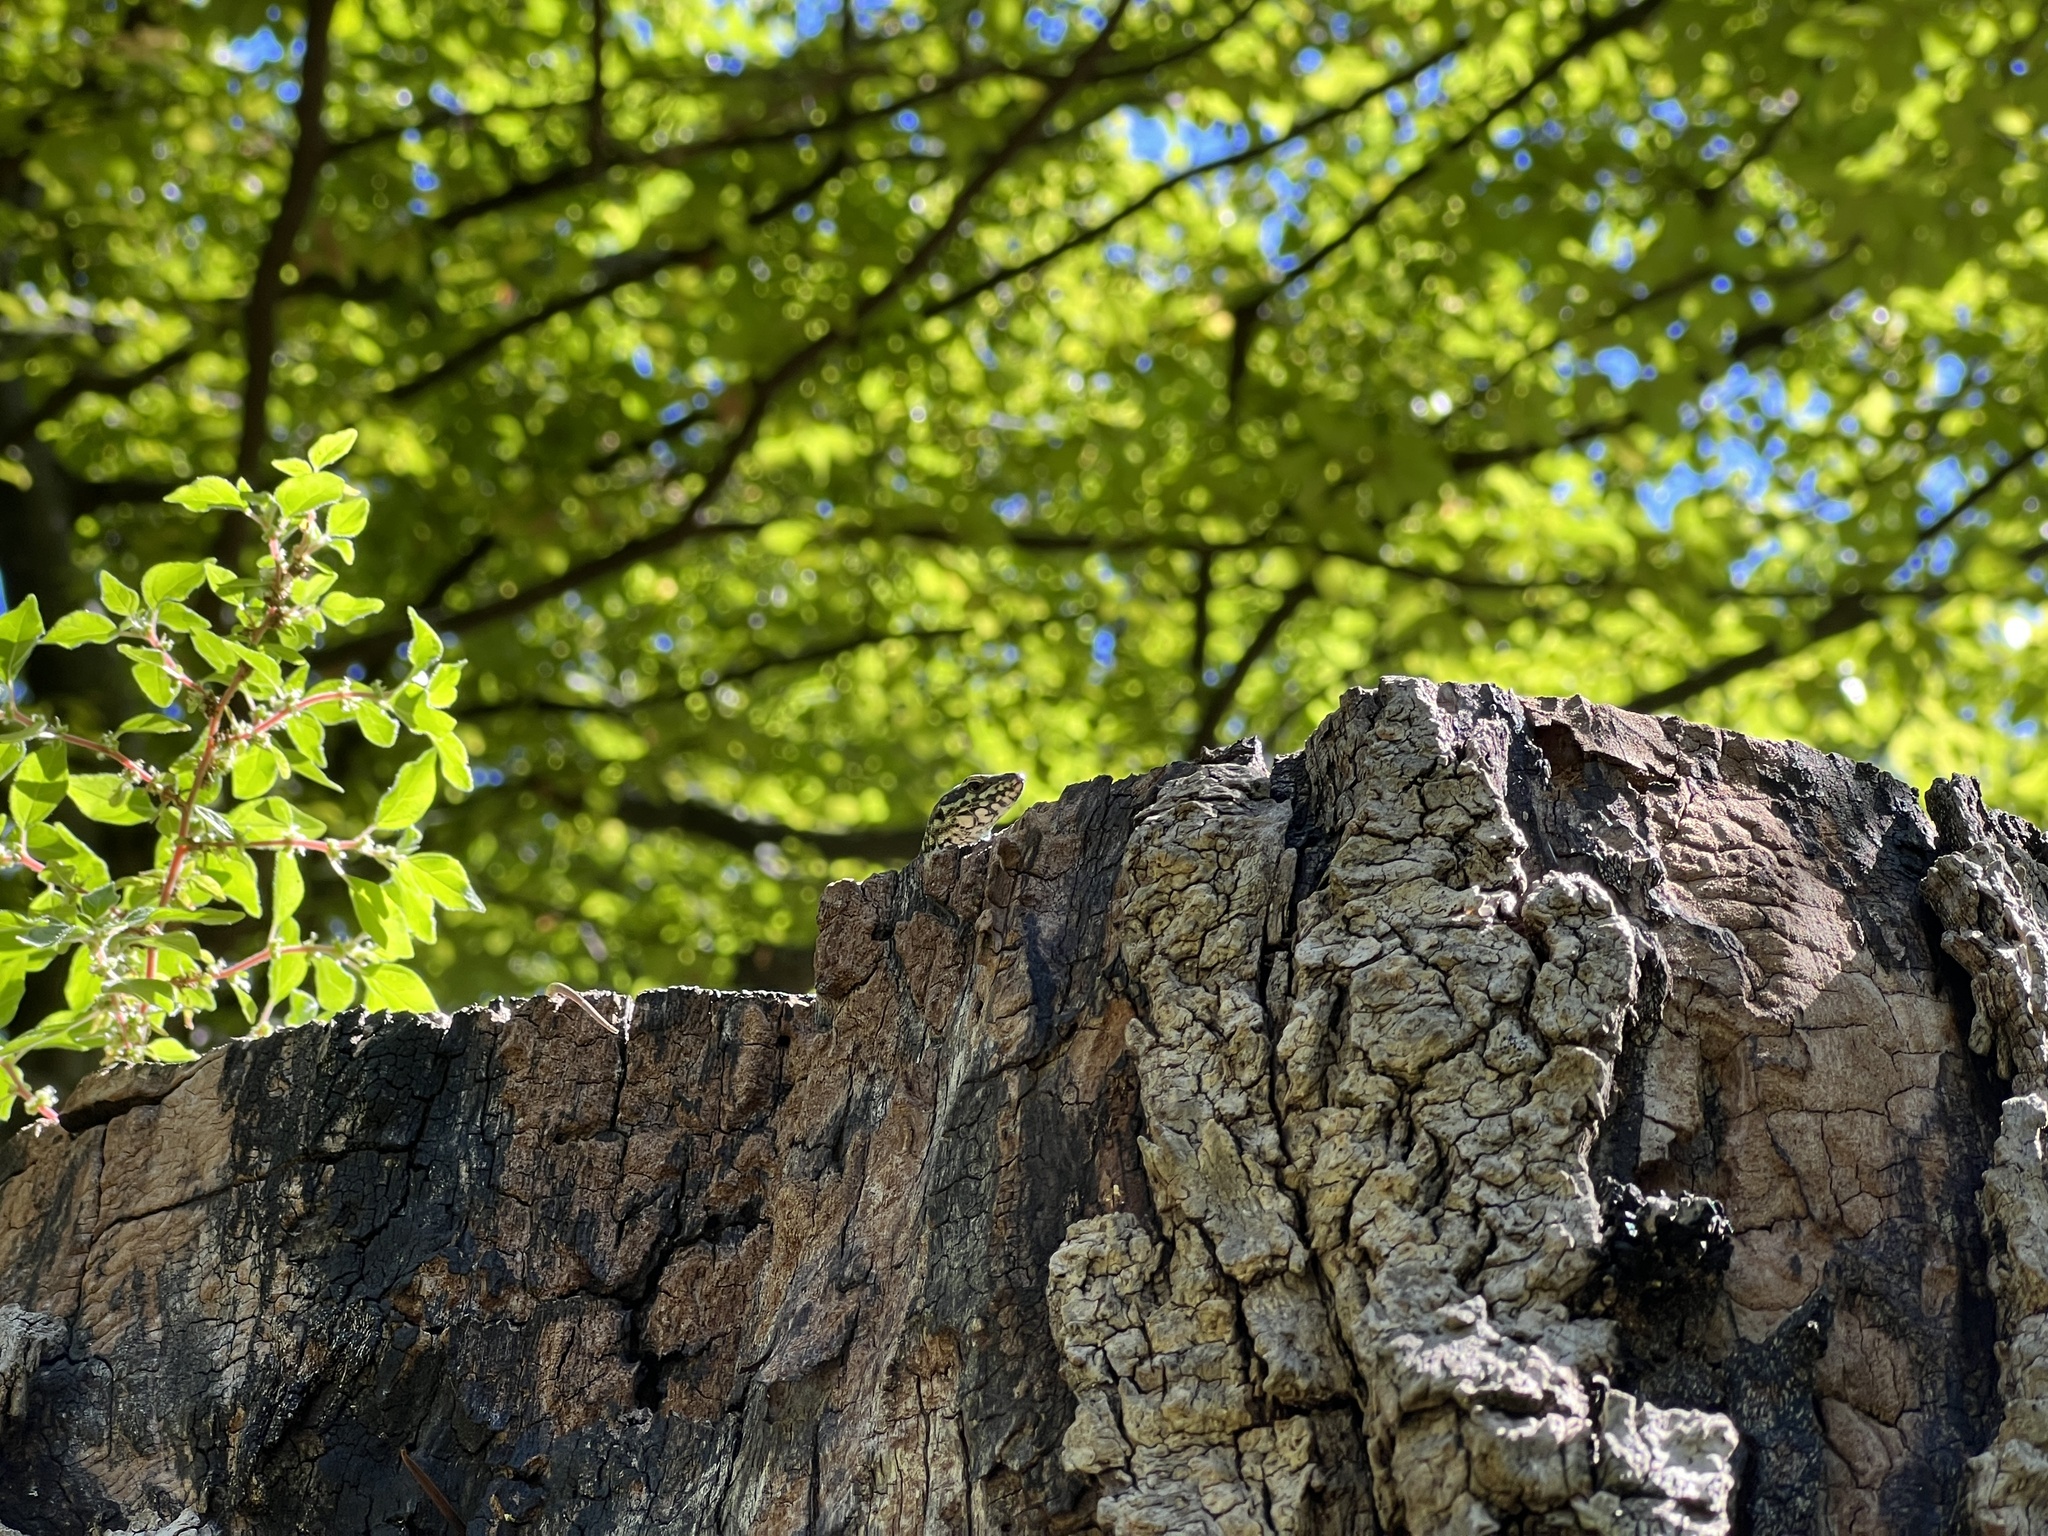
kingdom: Animalia
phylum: Chordata
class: Squamata
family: Lacertidae
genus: Podarcis
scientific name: Podarcis muralis
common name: Common wall lizard
